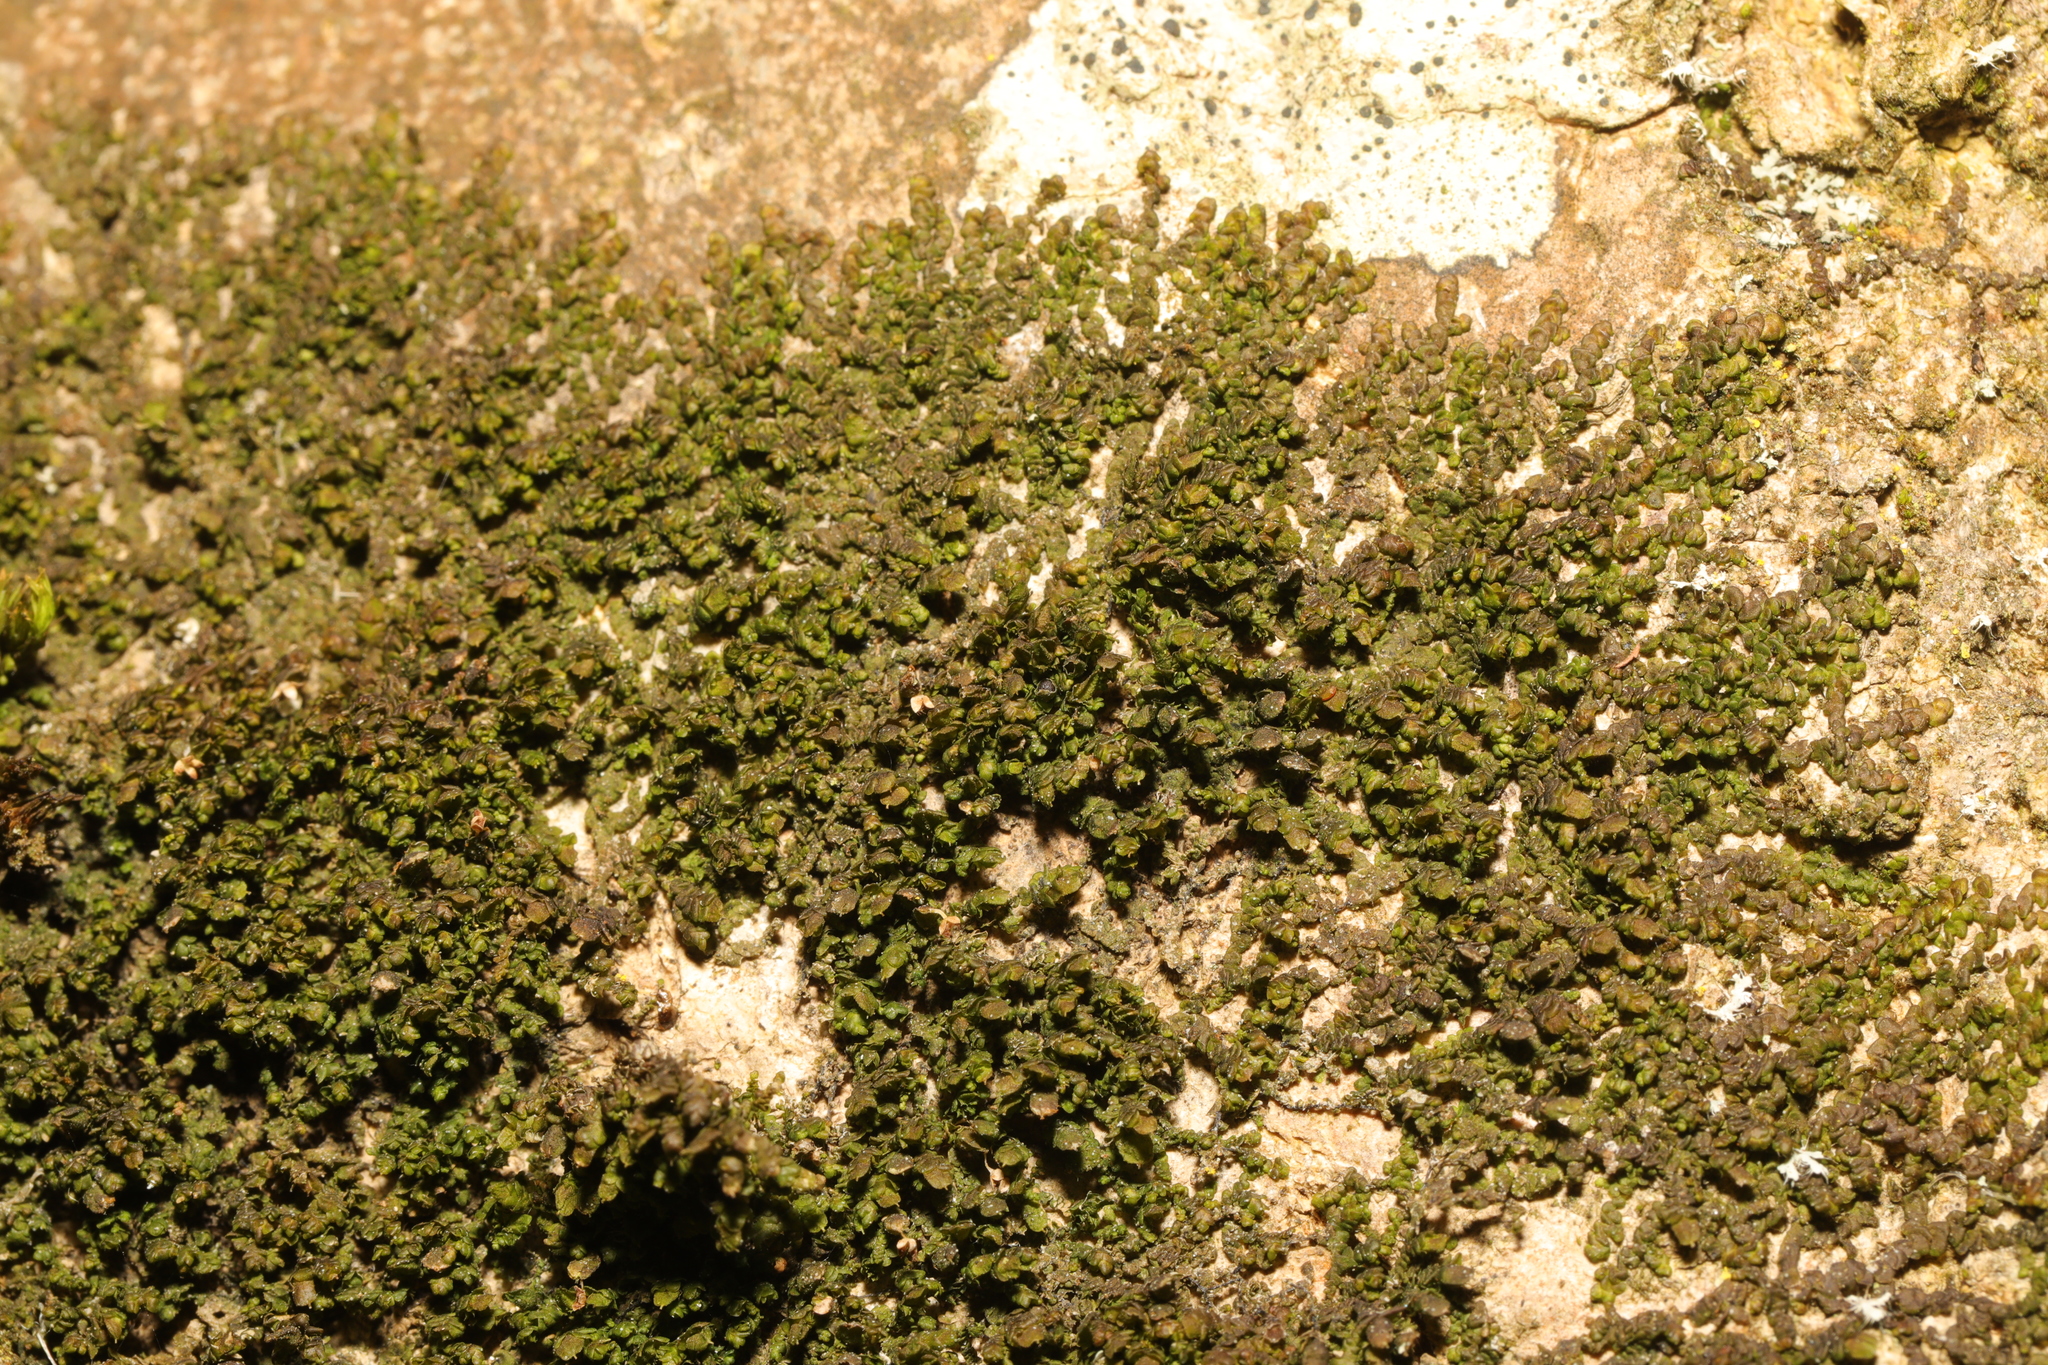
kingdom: Plantae
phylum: Marchantiophyta
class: Jungermanniopsida
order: Porellales
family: Frullaniaceae
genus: Frullania
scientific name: Frullania dilatata
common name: Dilated scalewort
